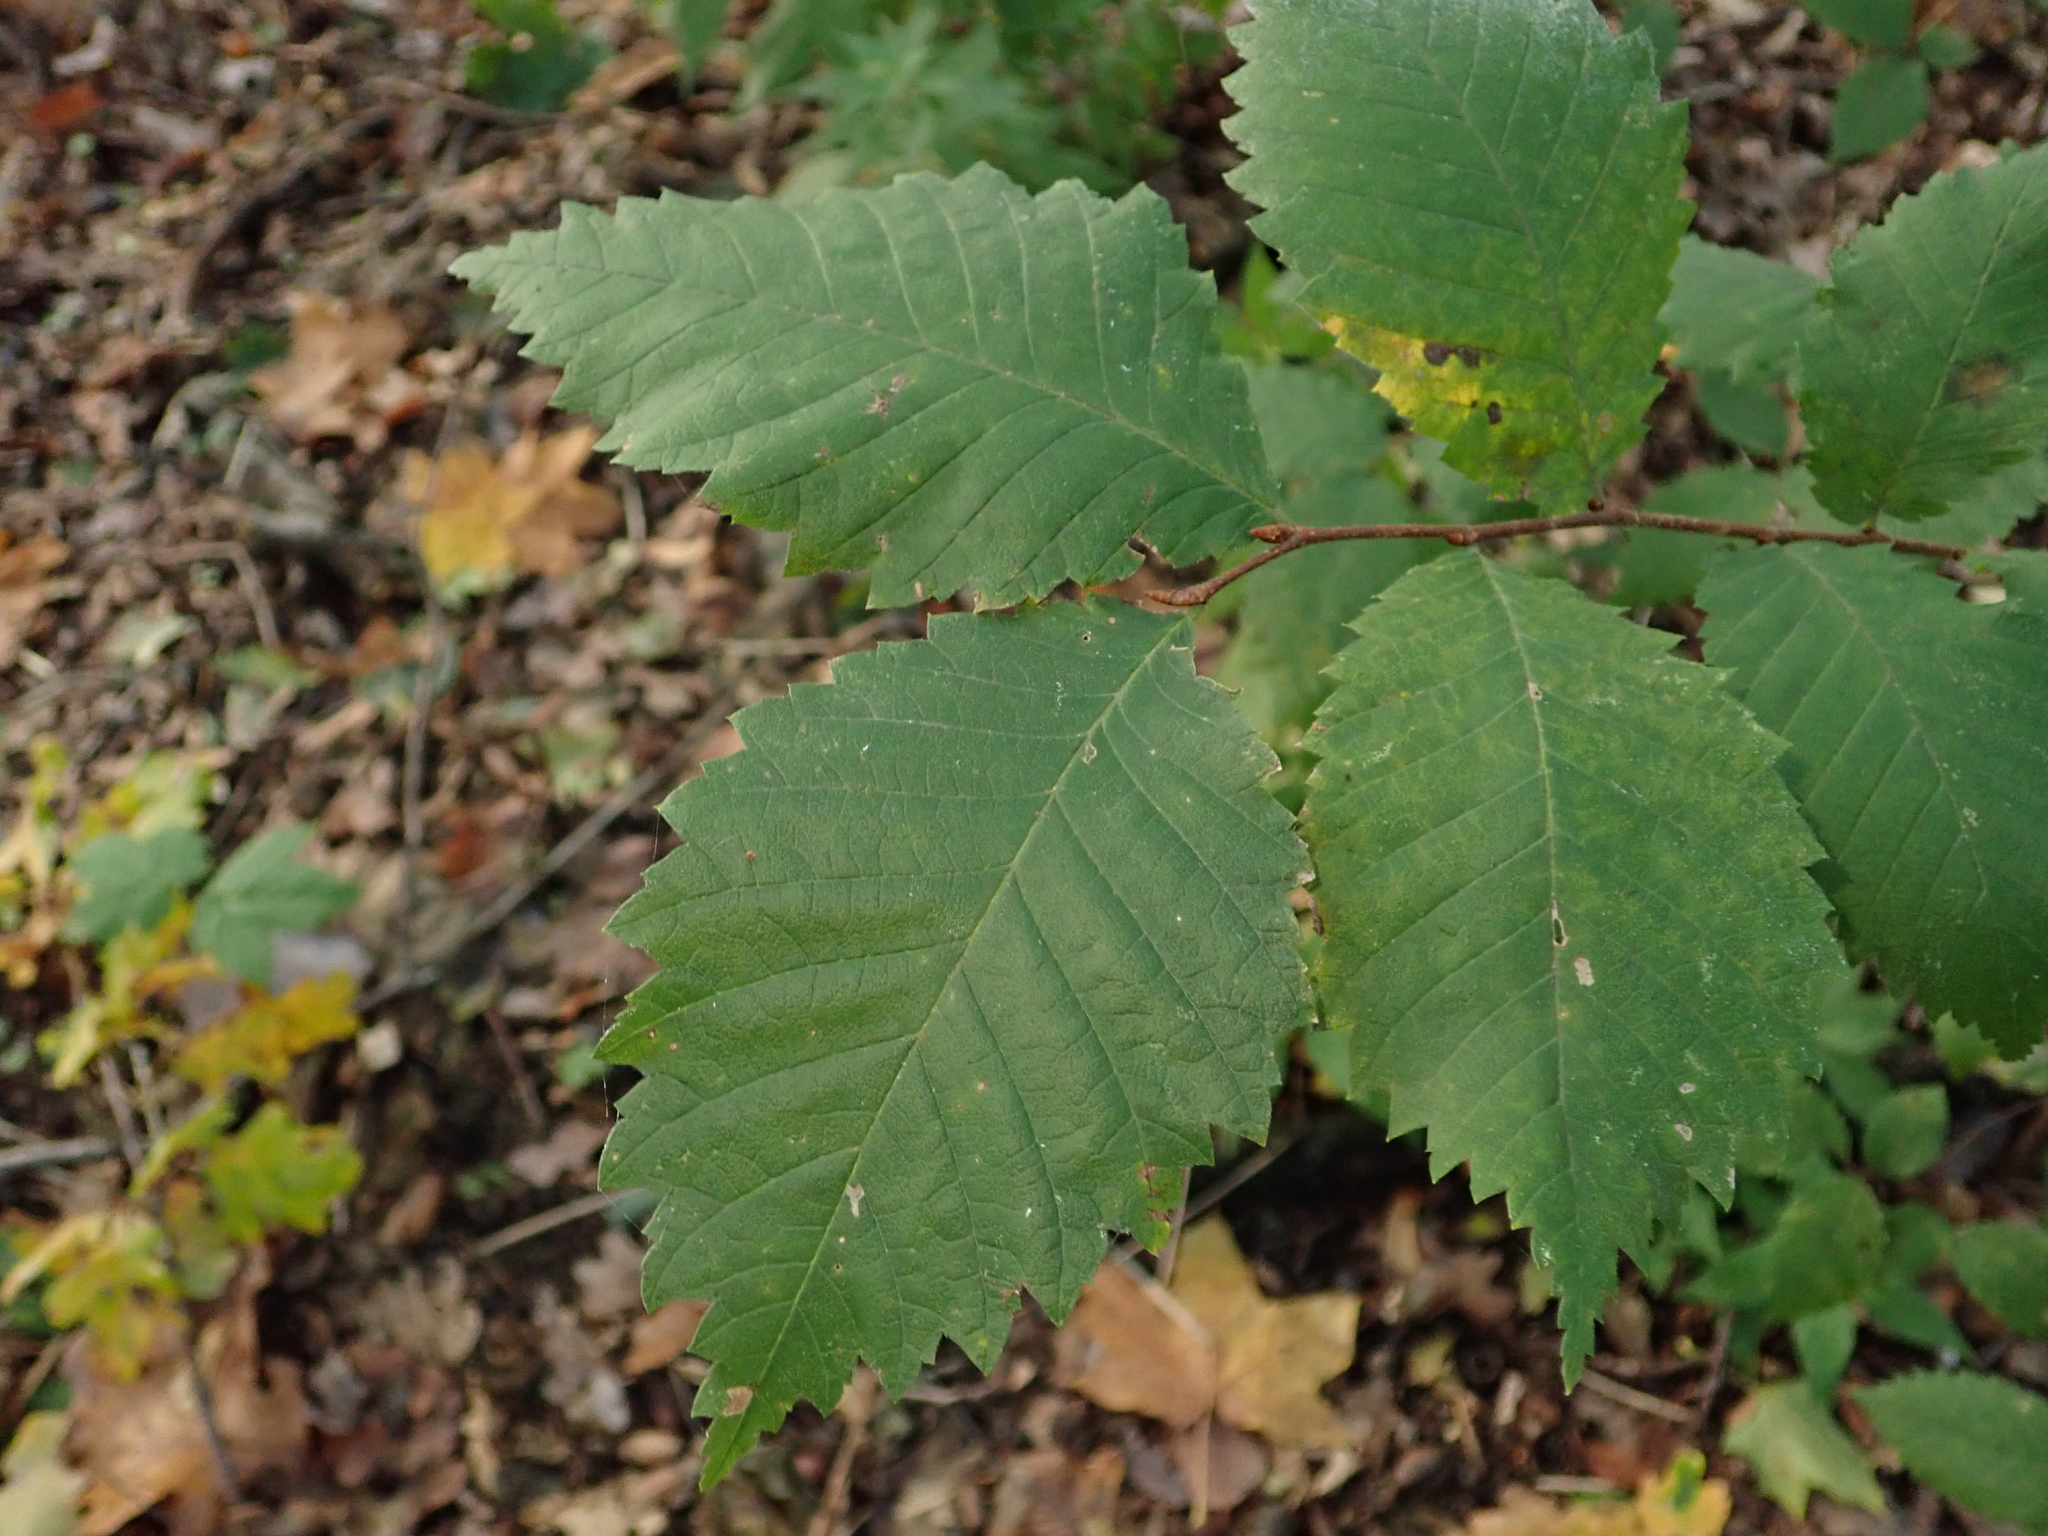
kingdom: Plantae
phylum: Tracheophyta
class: Magnoliopsida
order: Rosales
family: Ulmaceae
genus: Ulmus
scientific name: Ulmus minor
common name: Small-leaved elm
